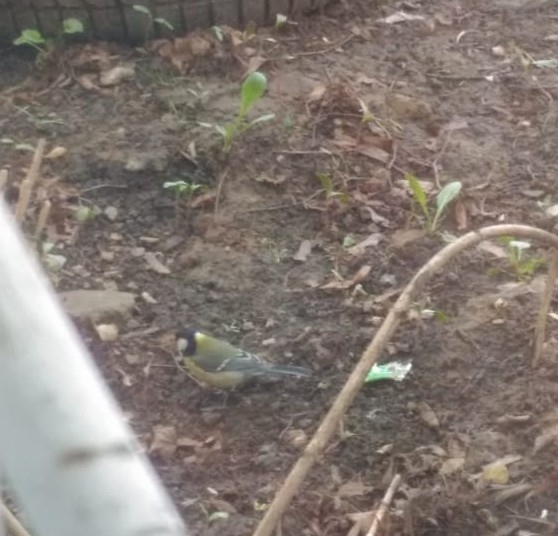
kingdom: Animalia
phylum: Chordata
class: Aves
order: Passeriformes
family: Paridae
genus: Parus
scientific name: Parus major
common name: Great tit
